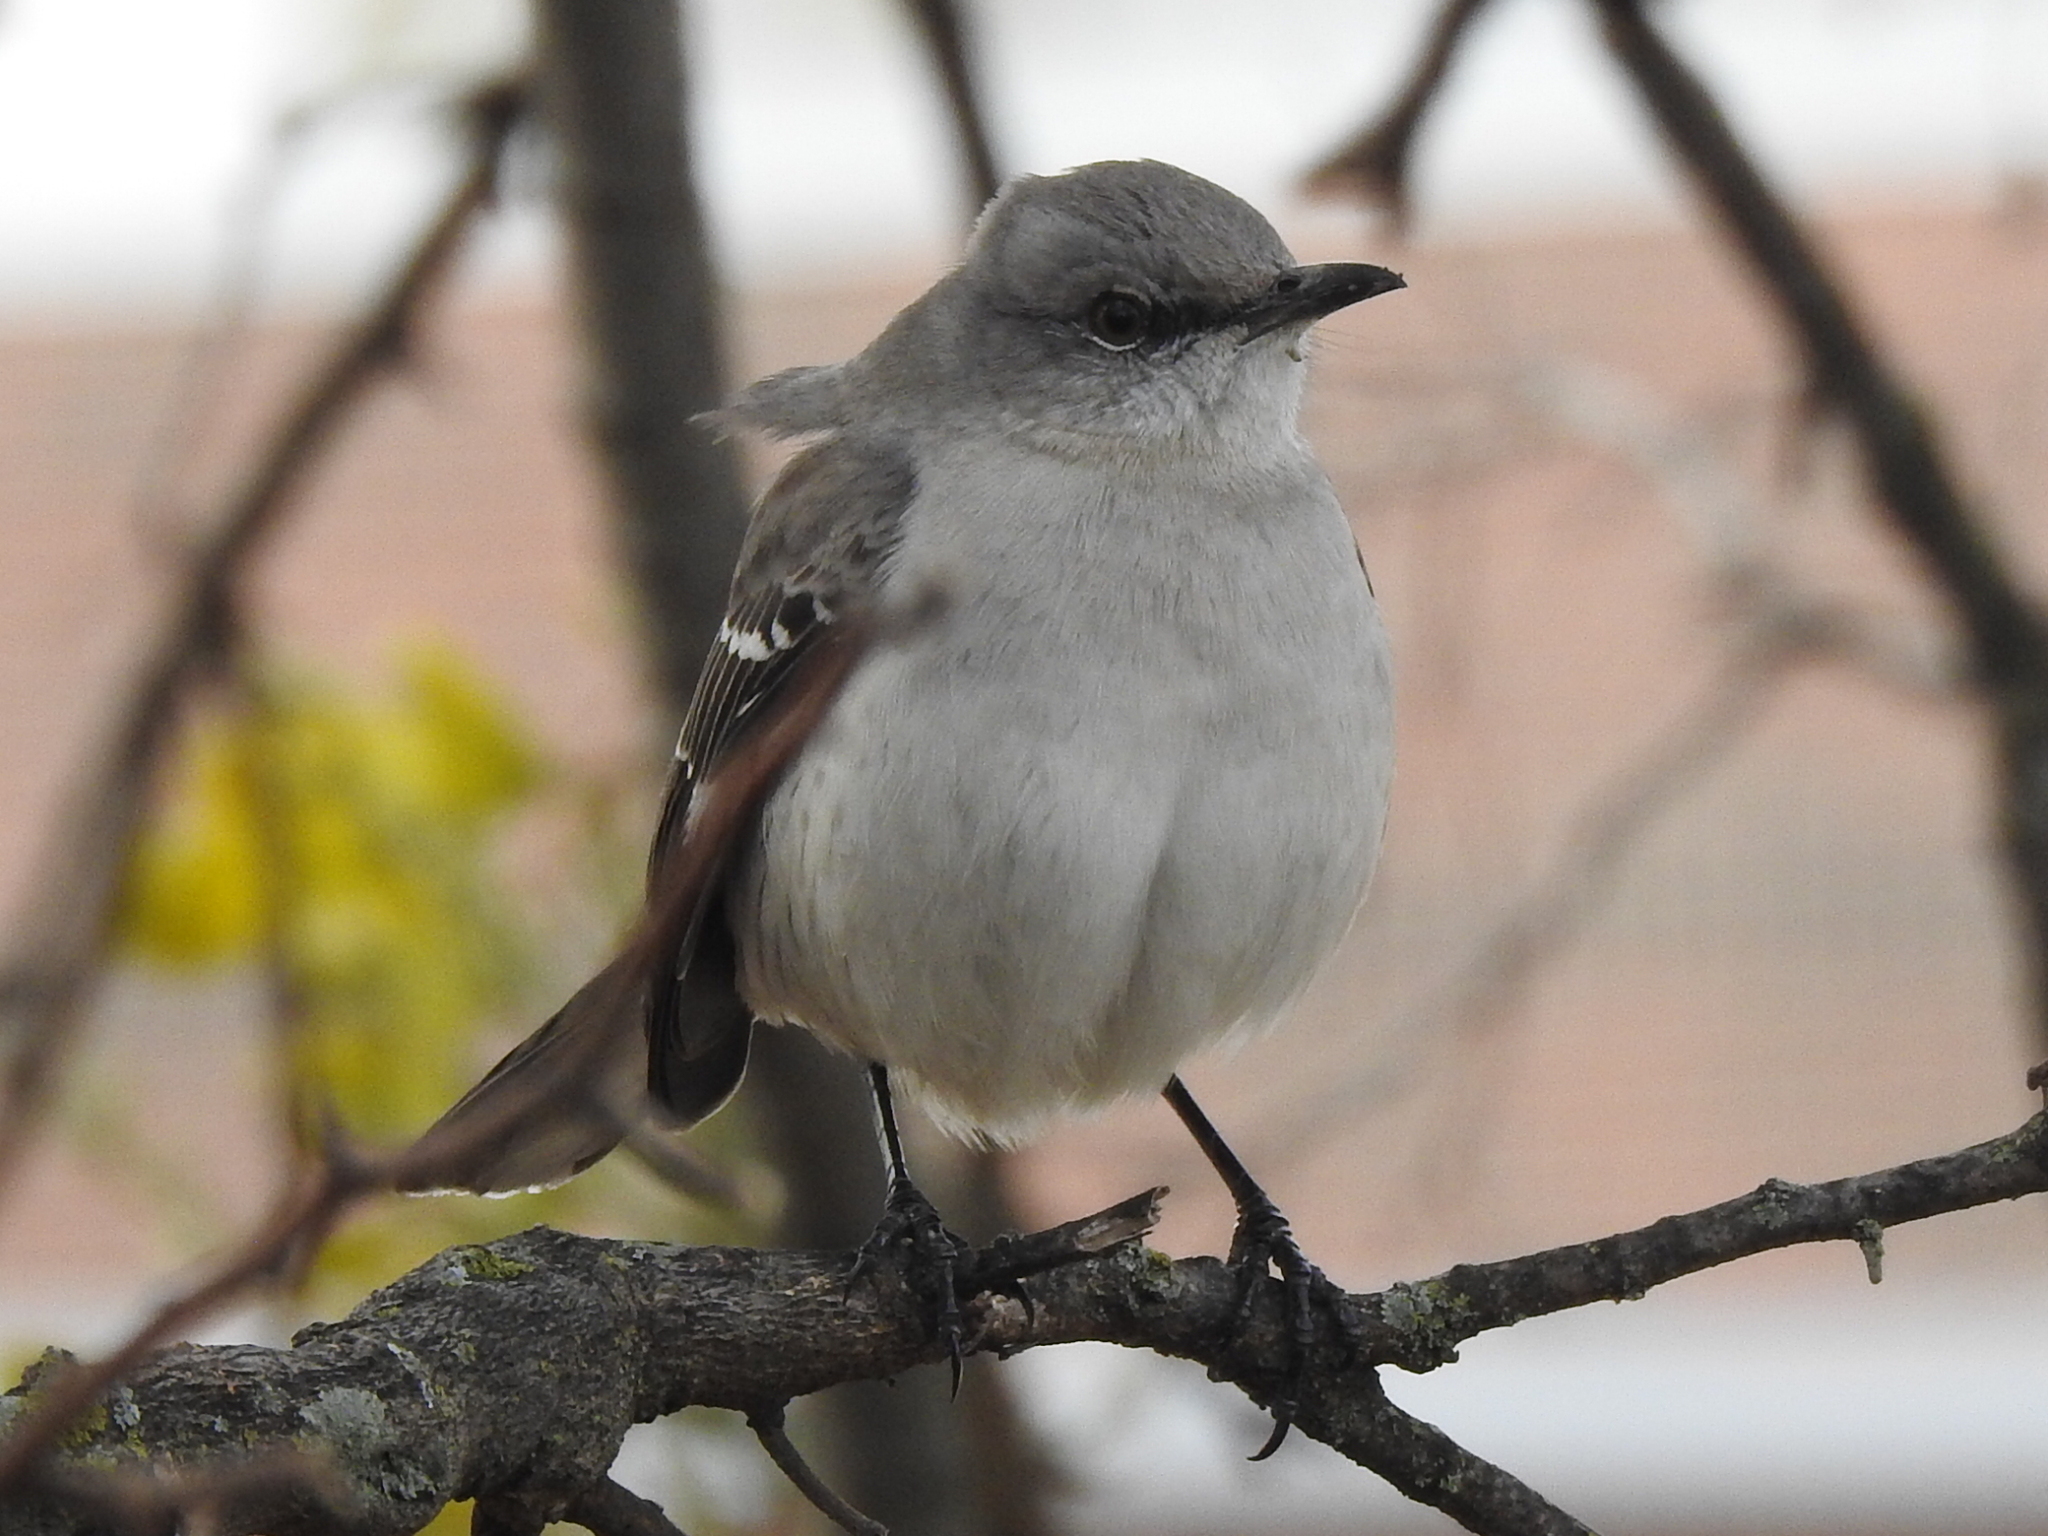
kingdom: Animalia
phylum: Chordata
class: Aves
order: Passeriformes
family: Mimidae
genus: Mimus
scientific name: Mimus polyglottos
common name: Northern mockingbird
